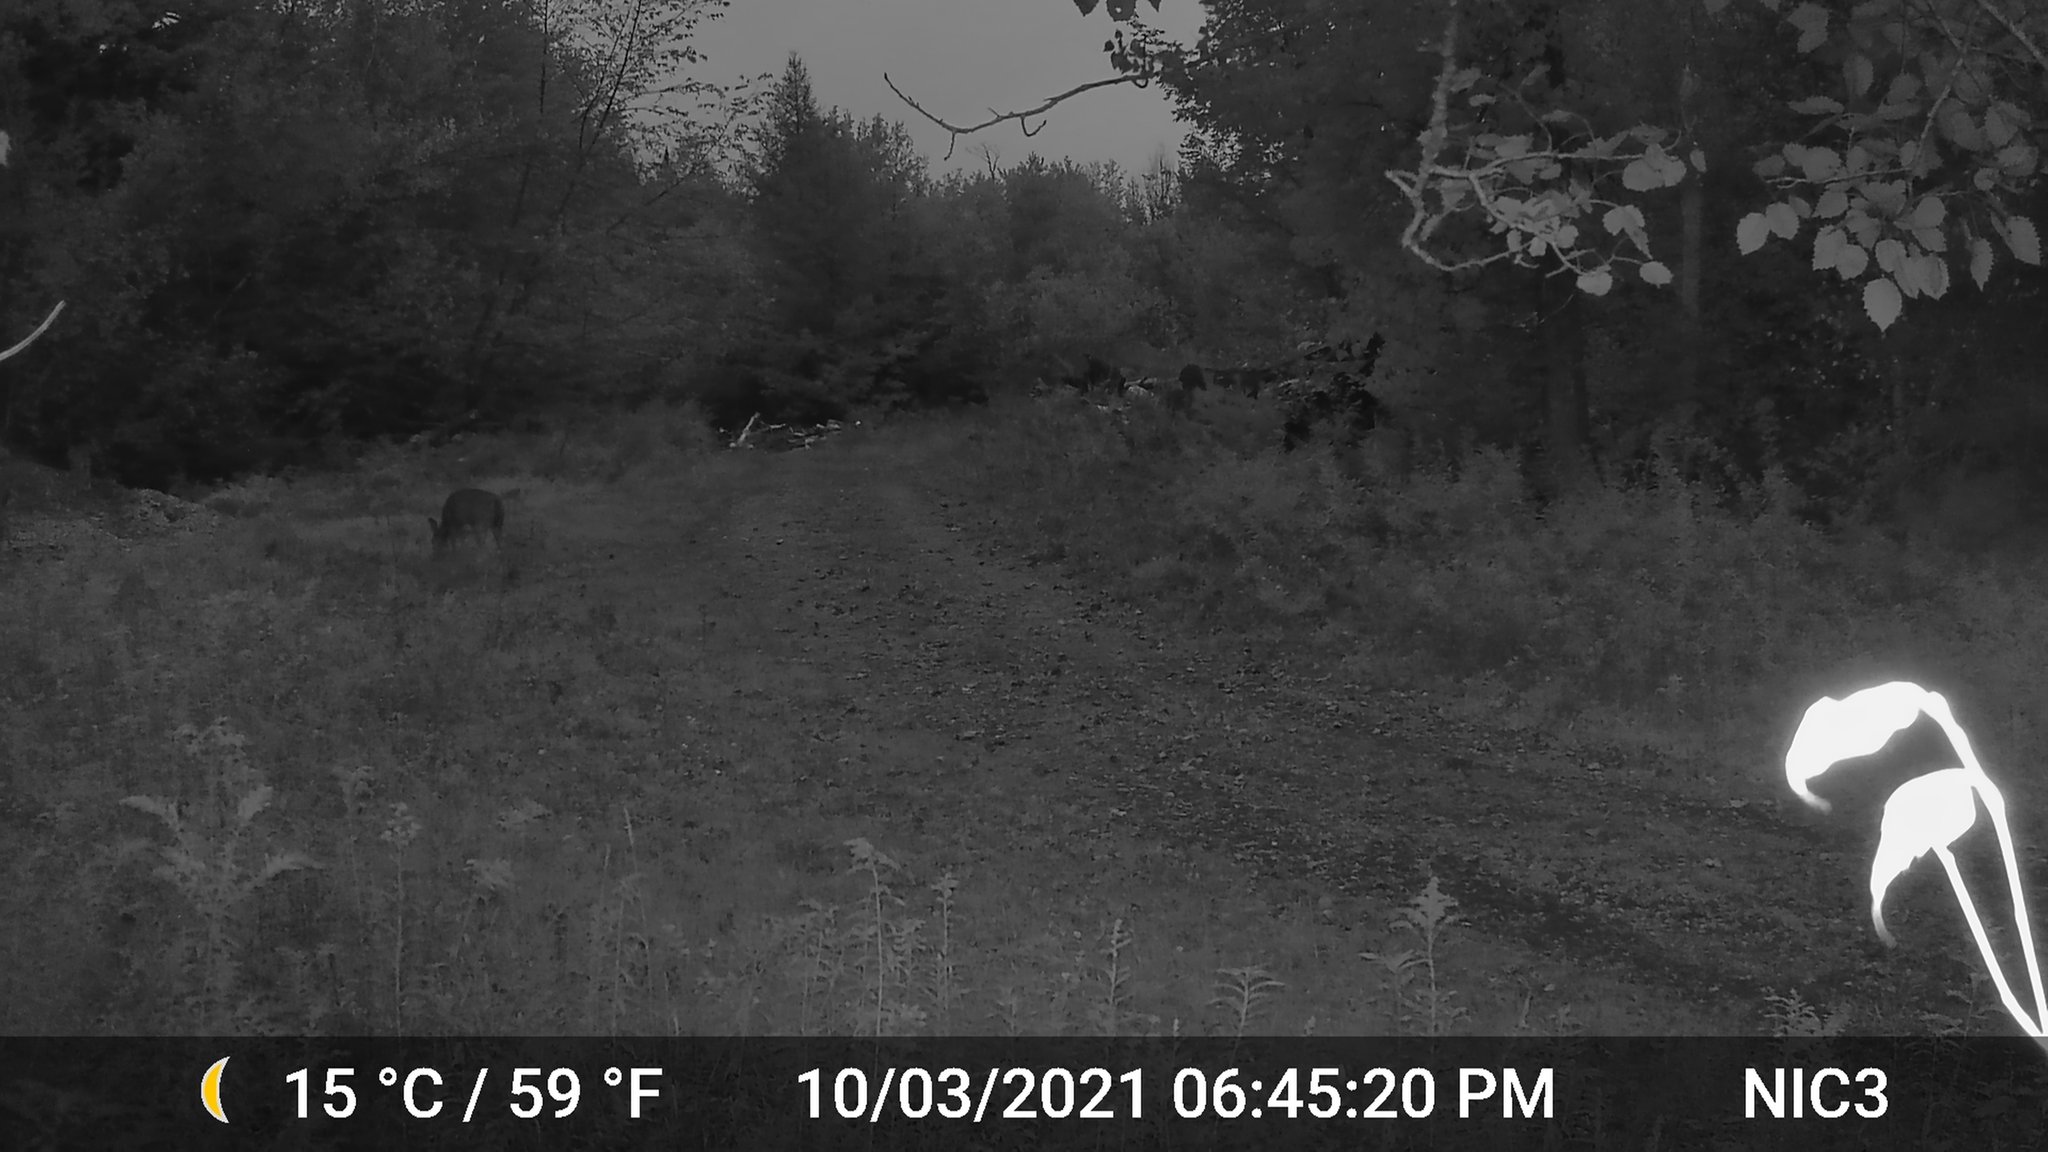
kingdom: Animalia
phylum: Chordata
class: Mammalia
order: Artiodactyla
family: Cervidae
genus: Odocoileus
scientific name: Odocoileus virginianus
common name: White-tailed deer
